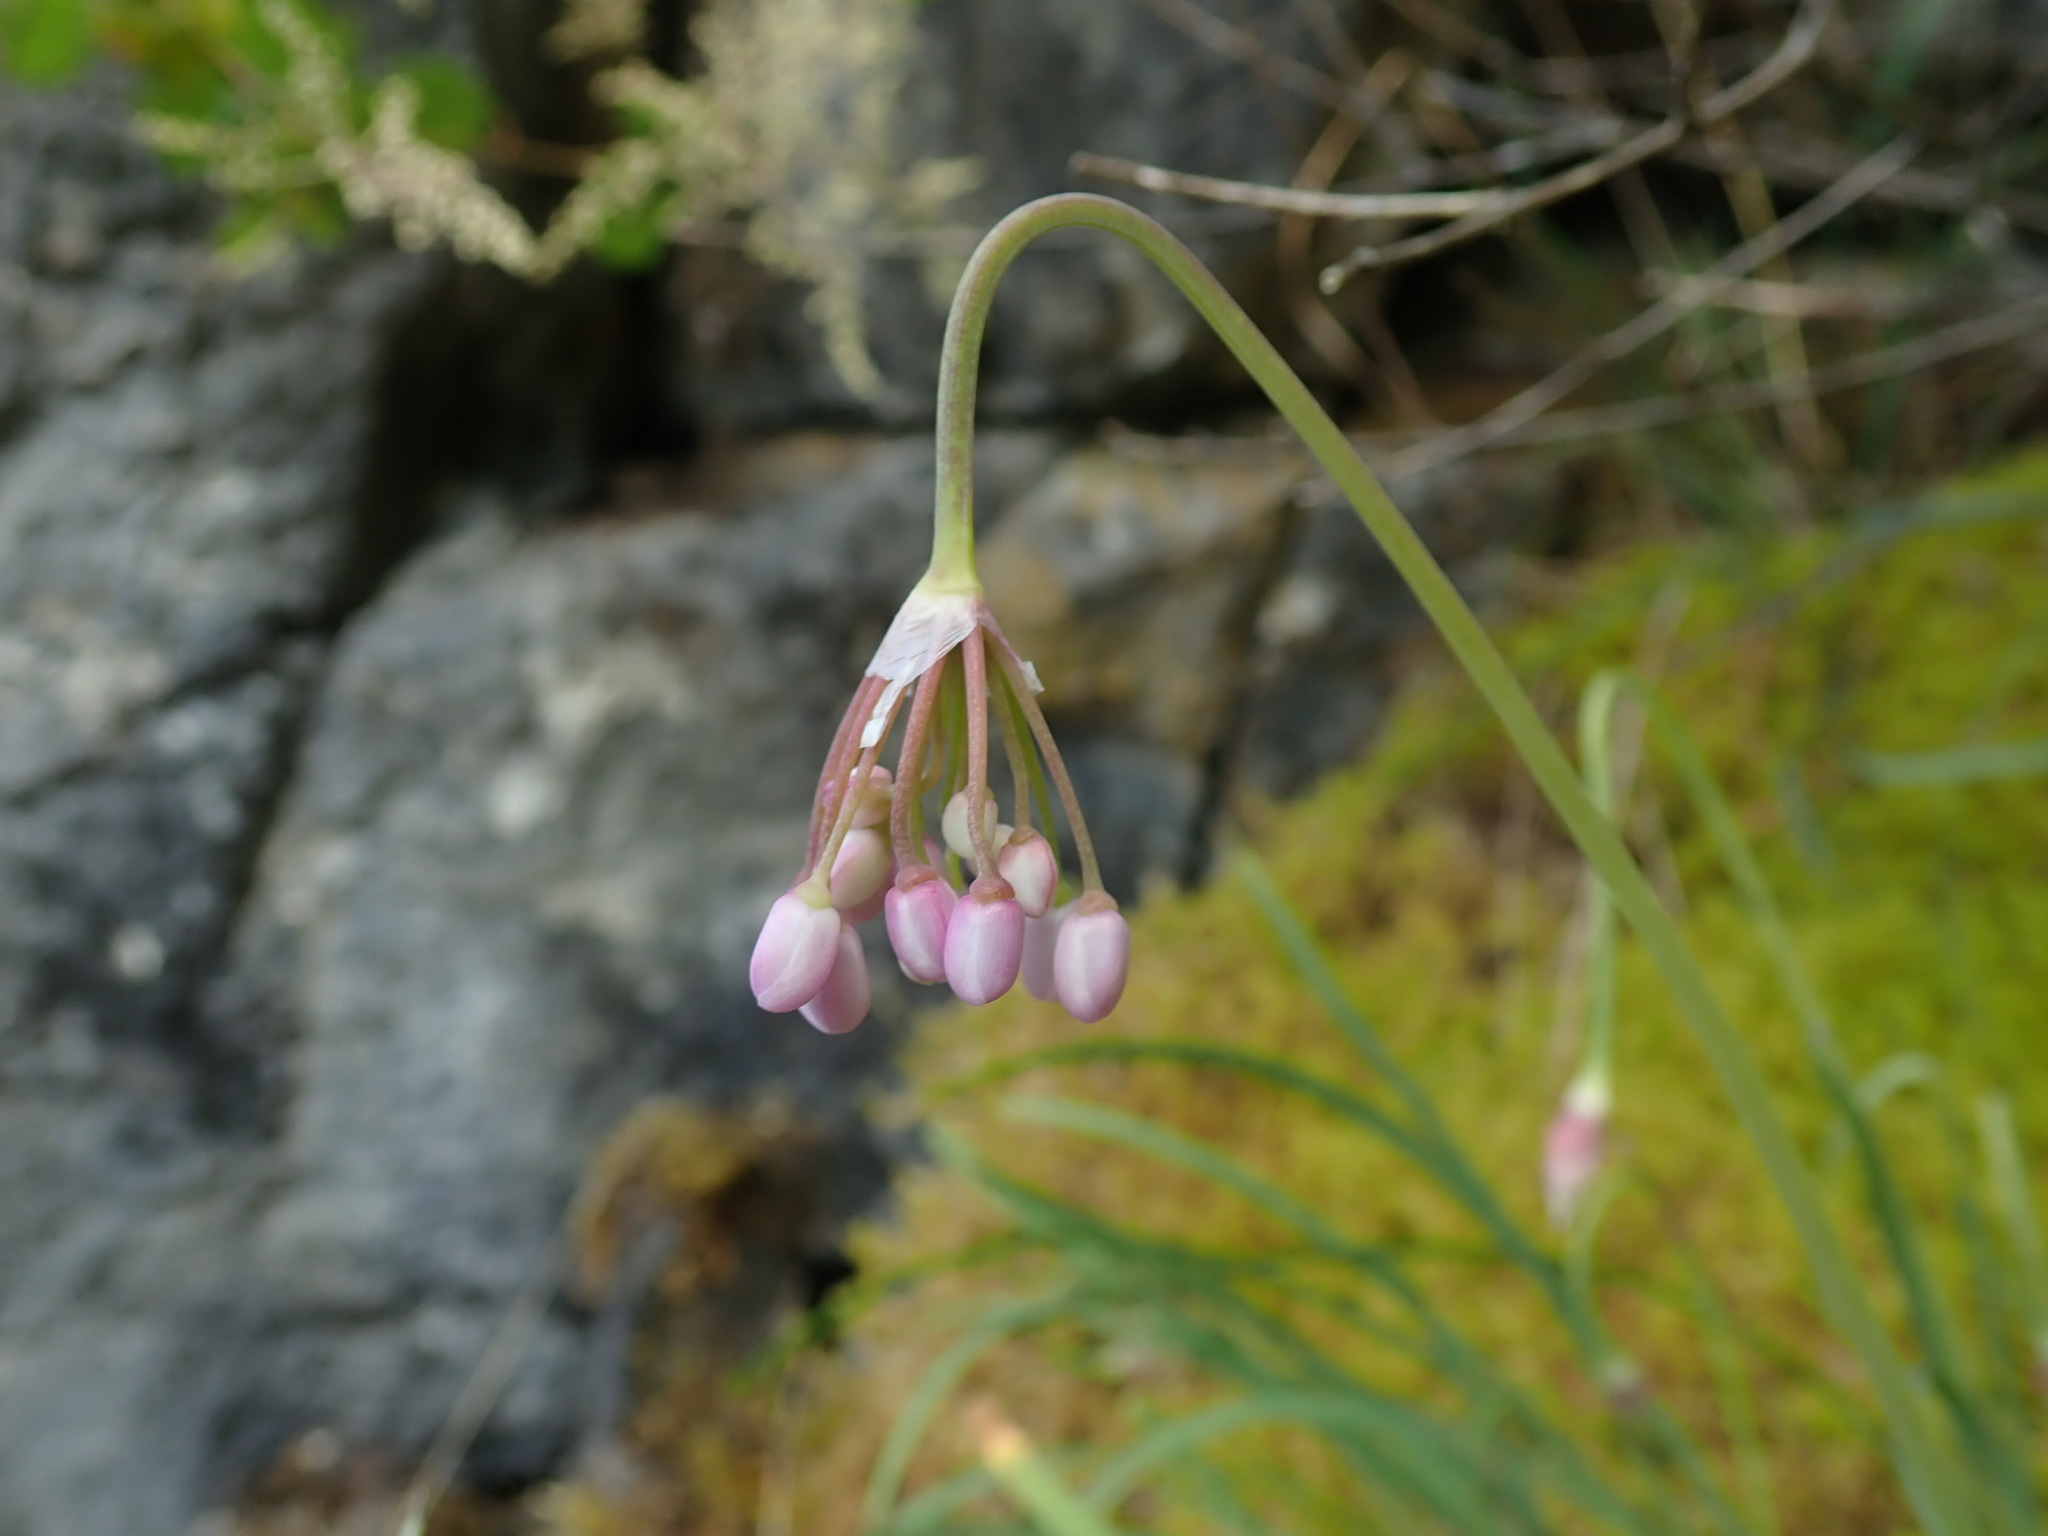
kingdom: Plantae
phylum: Tracheophyta
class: Liliopsida
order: Asparagales
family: Amaryllidaceae
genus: Allium
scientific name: Allium cernuum
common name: Nodding onion
